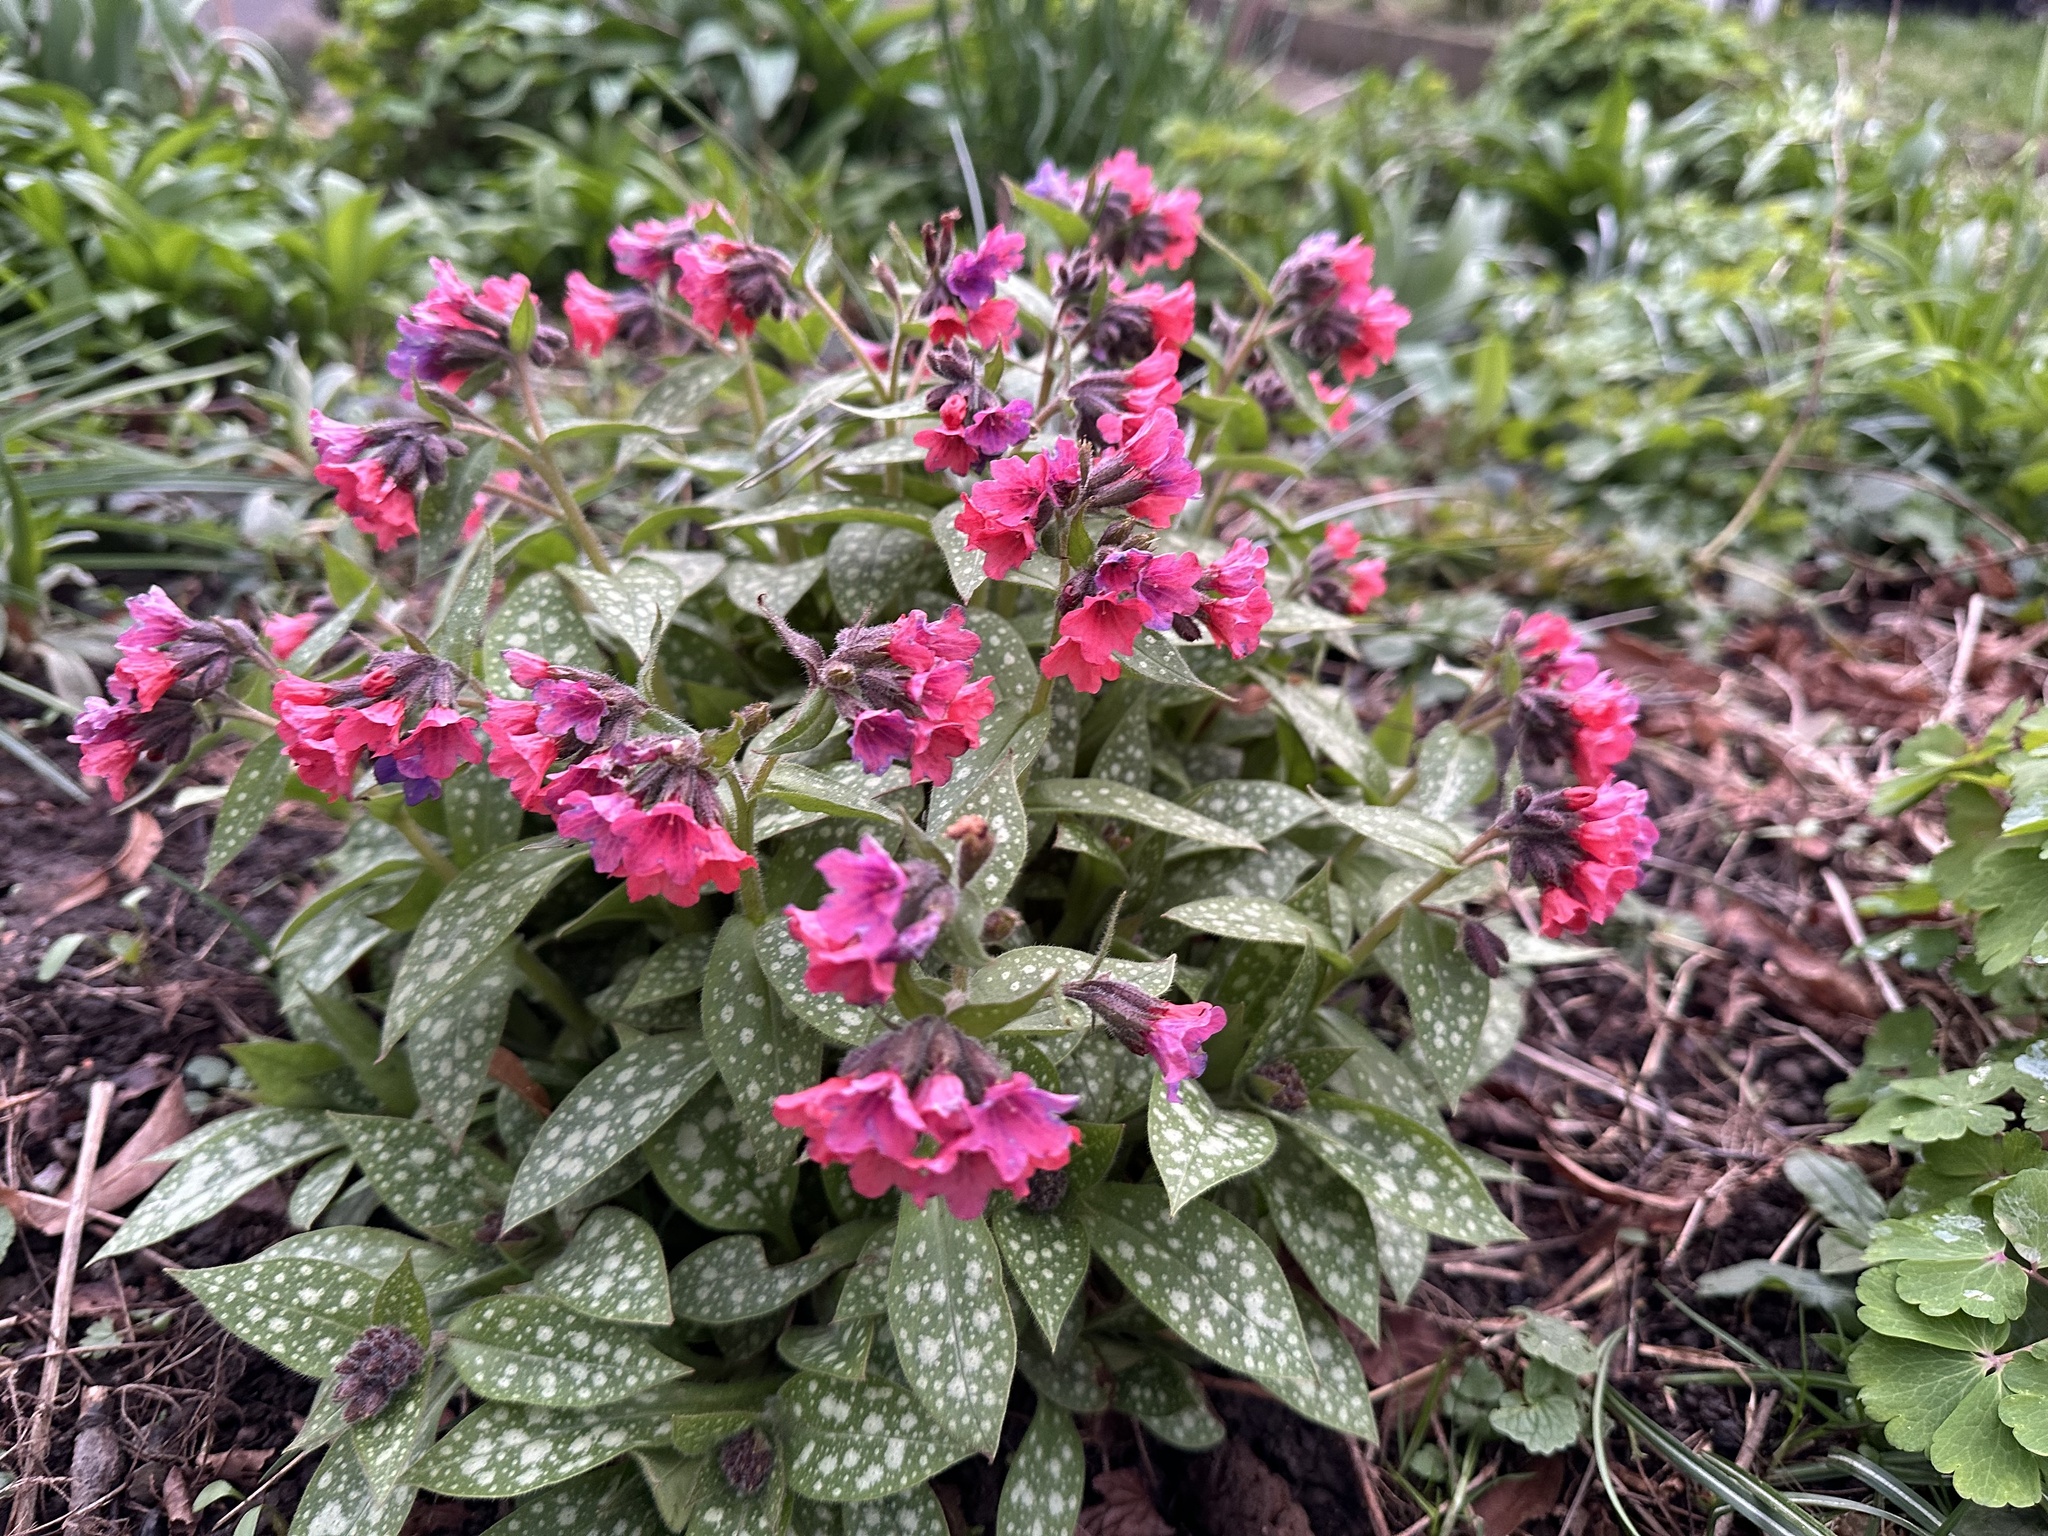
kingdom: Plantae
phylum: Tracheophyta
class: Magnoliopsida
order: Boraginales
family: Boraginaceae
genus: Pulmonaria
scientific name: Pulmonaria officinalis
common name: Lungwort
